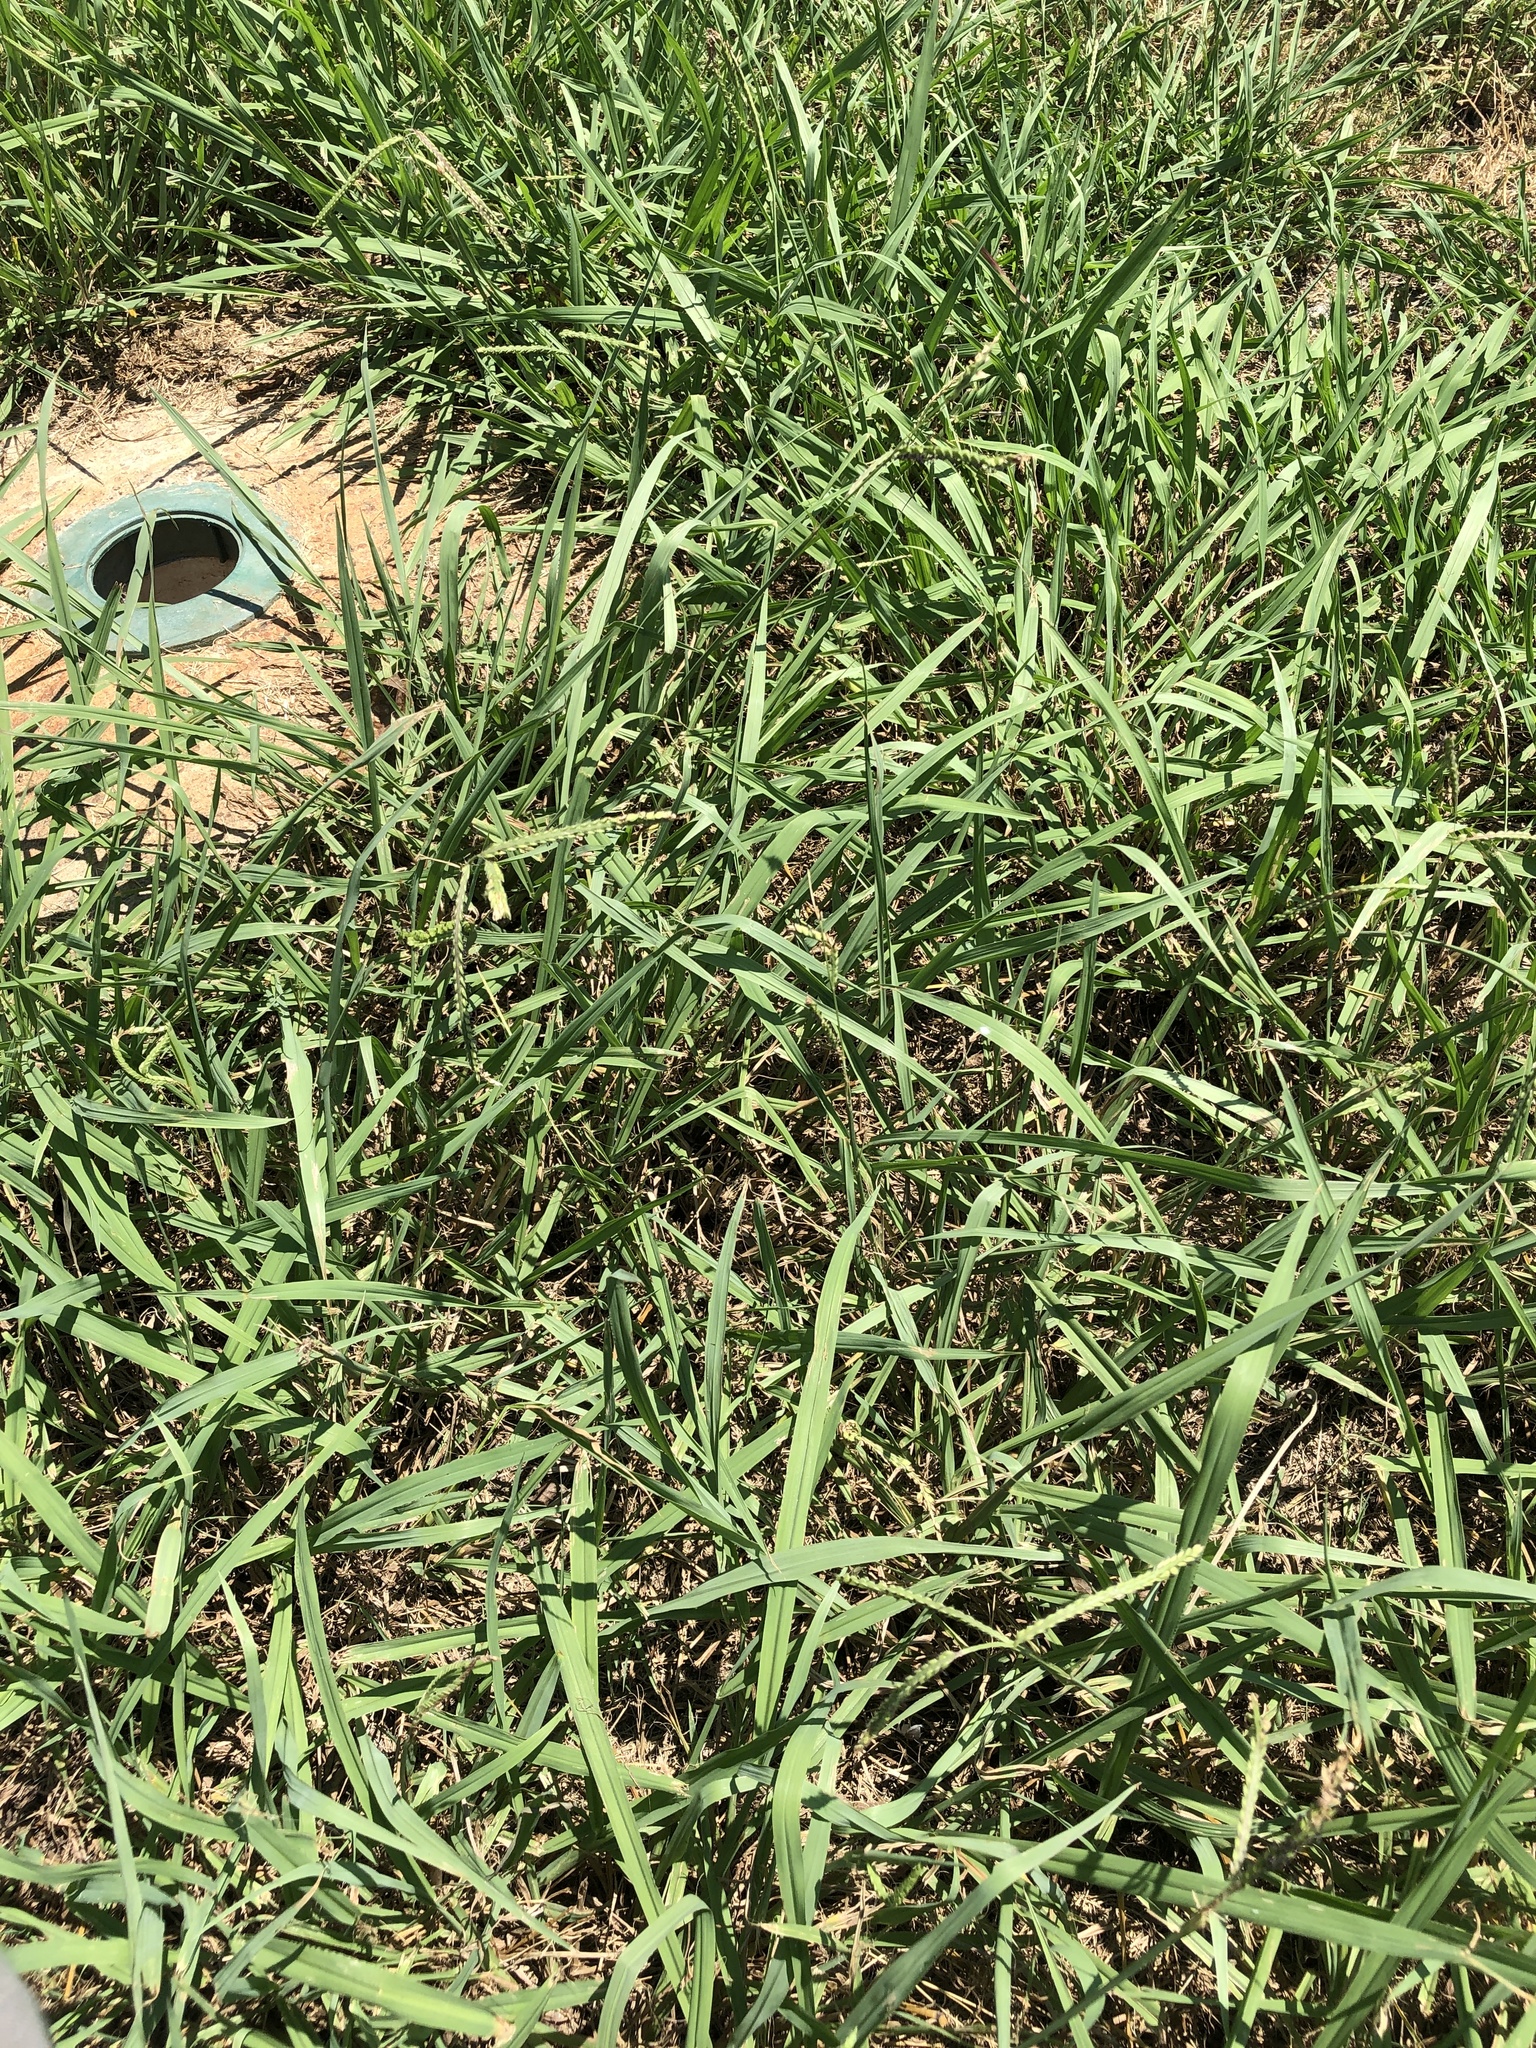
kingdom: Plantae
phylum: Tracheophyta
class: Liliopsida
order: Poales
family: Poaceae
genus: Paspalum
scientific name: Paspalum dilatatum
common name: Dallisgrass
